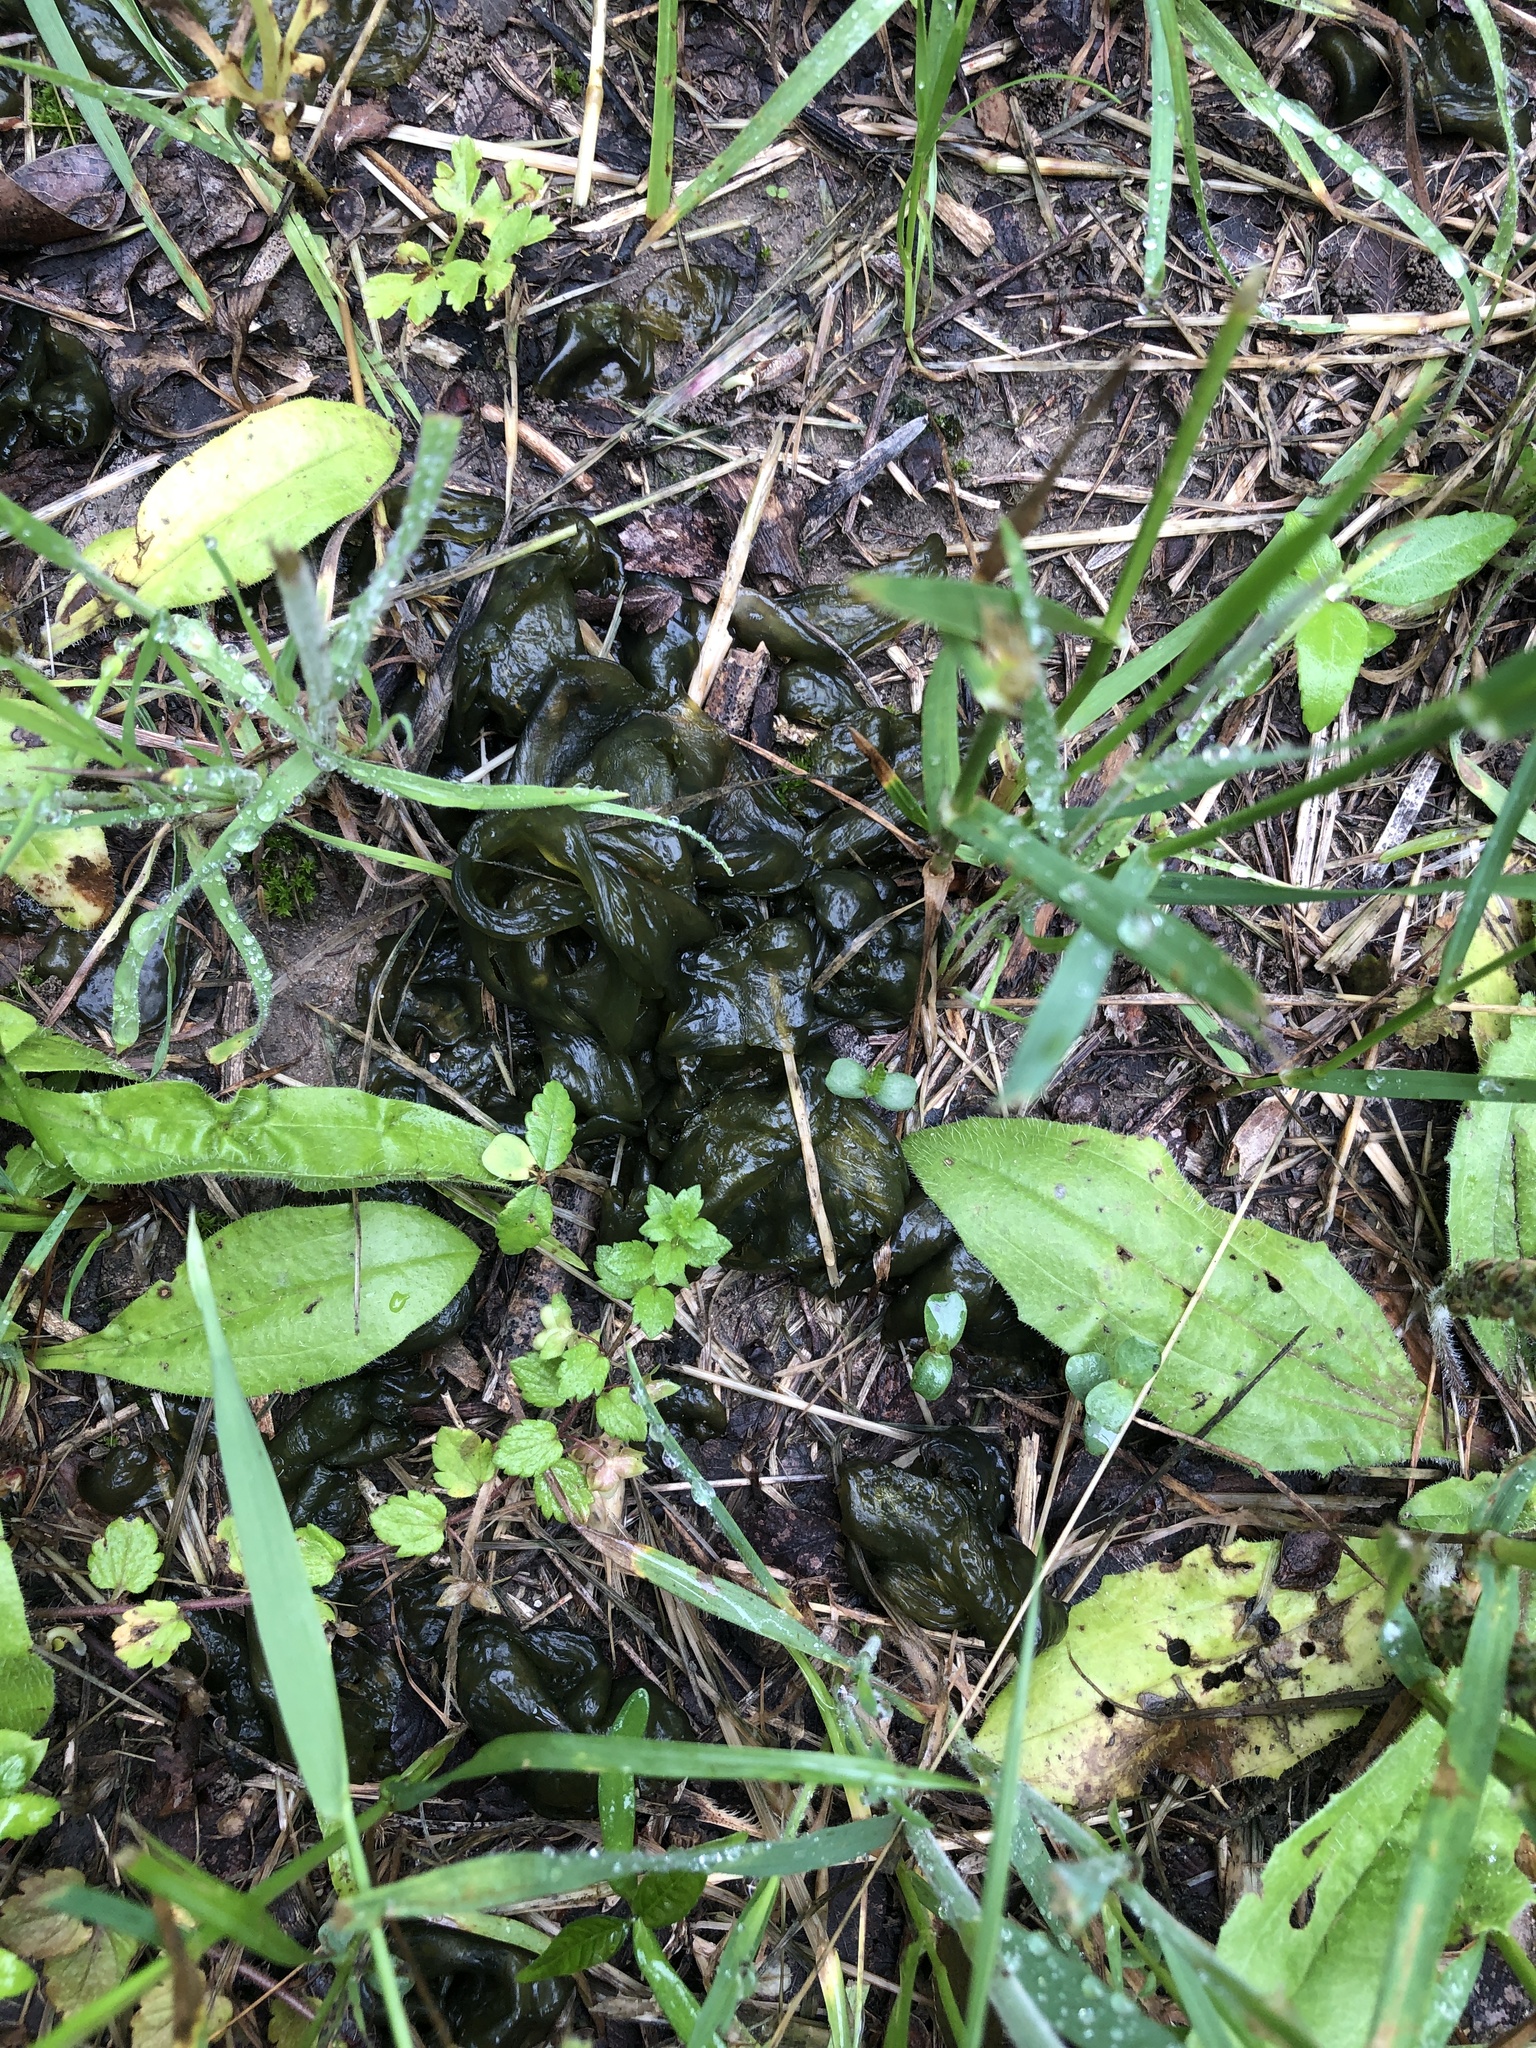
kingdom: Bacteria
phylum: Cyanobacteria
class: Cyanobacteriia
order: Cyanobacteriales
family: Nostocaceae
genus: Nostoc
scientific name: Nostoc commune
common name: Star jelly
